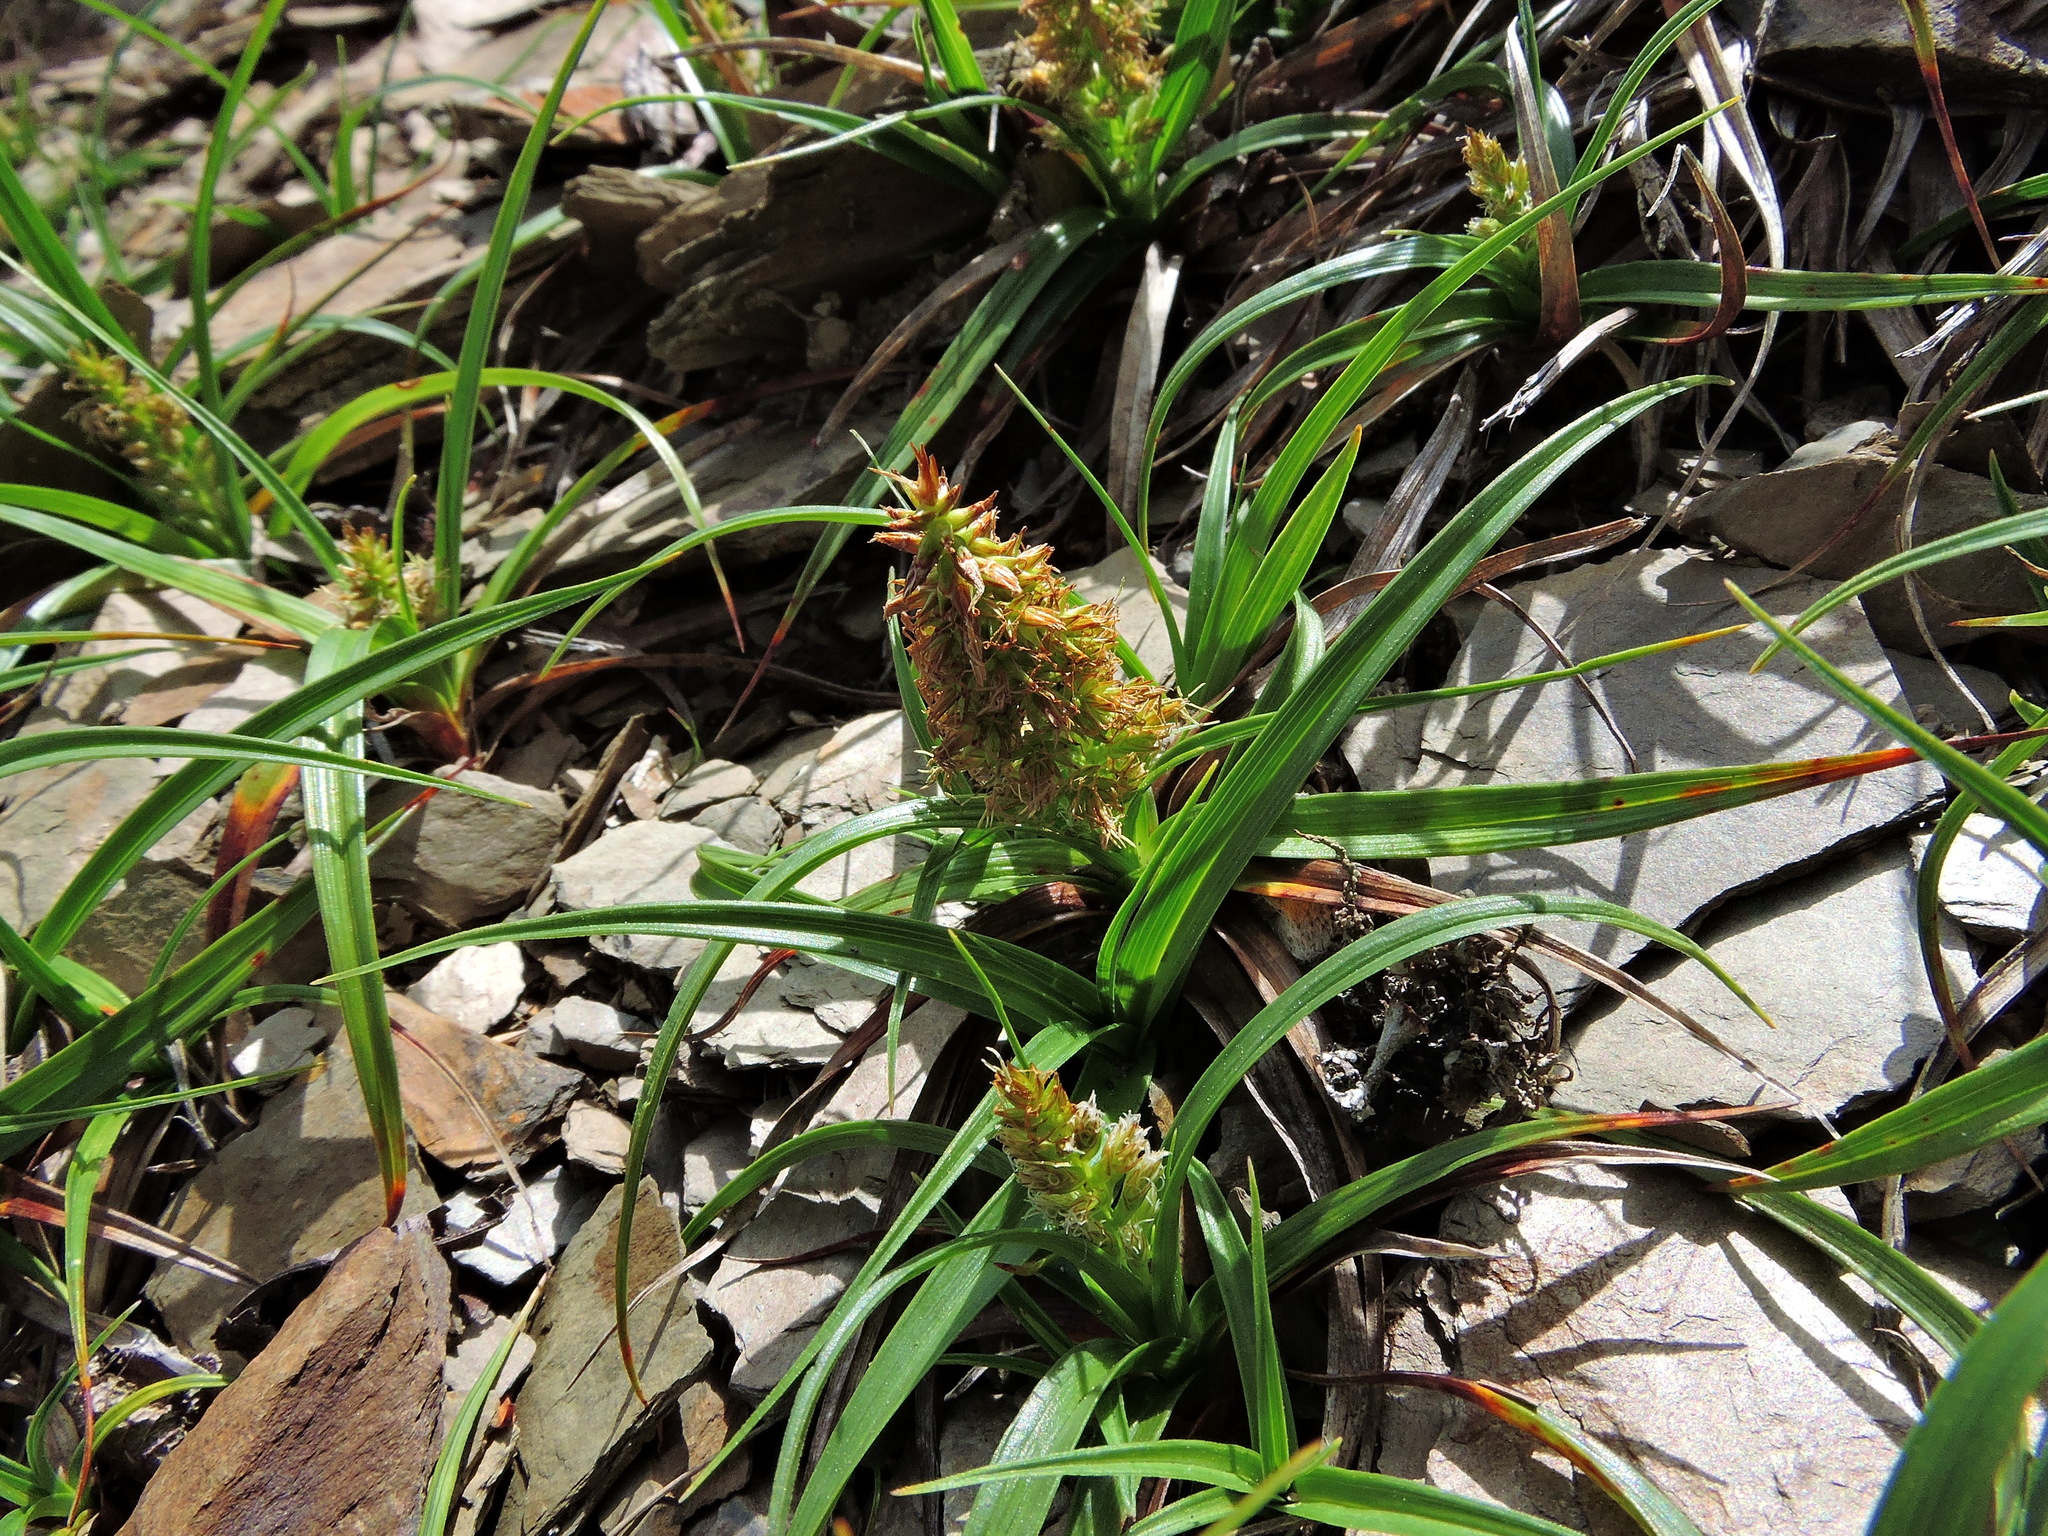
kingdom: Plantae
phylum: Tracheophyta
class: Liliopsida
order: Poales
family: Cyperaceae
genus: Carex
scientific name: Carex satsumensis
